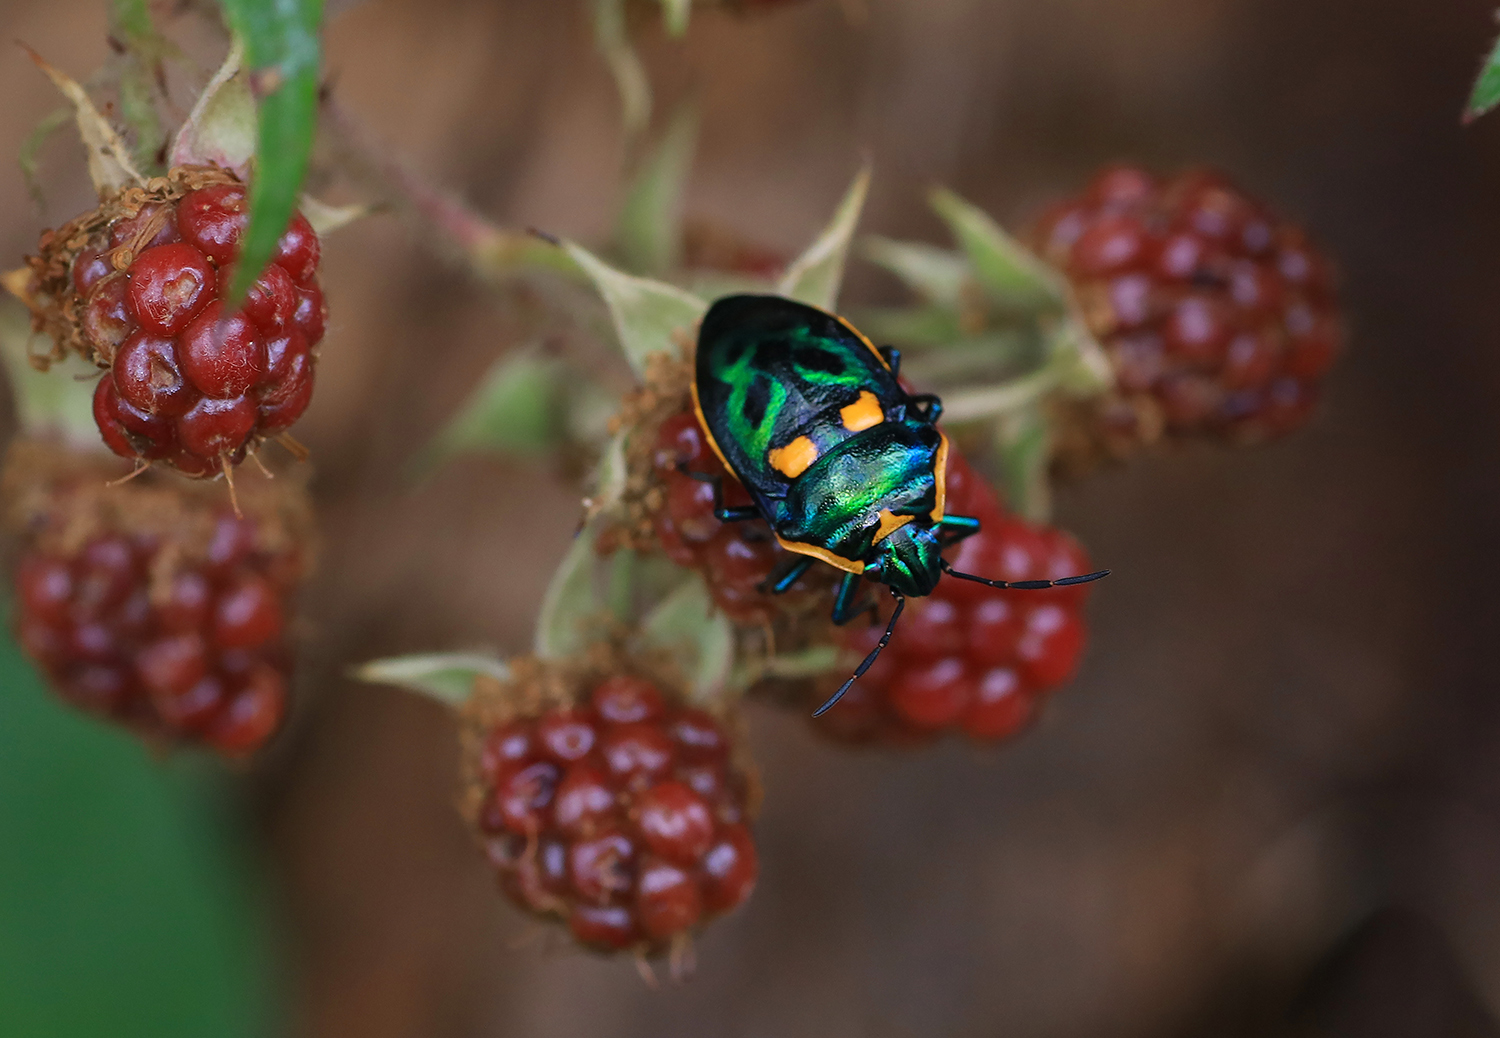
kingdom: Animalia
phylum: Arthropoda
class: Insecta
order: Hemiptera
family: Scutelleridae
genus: Scutiphora
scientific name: Scutiphora pedicellata
